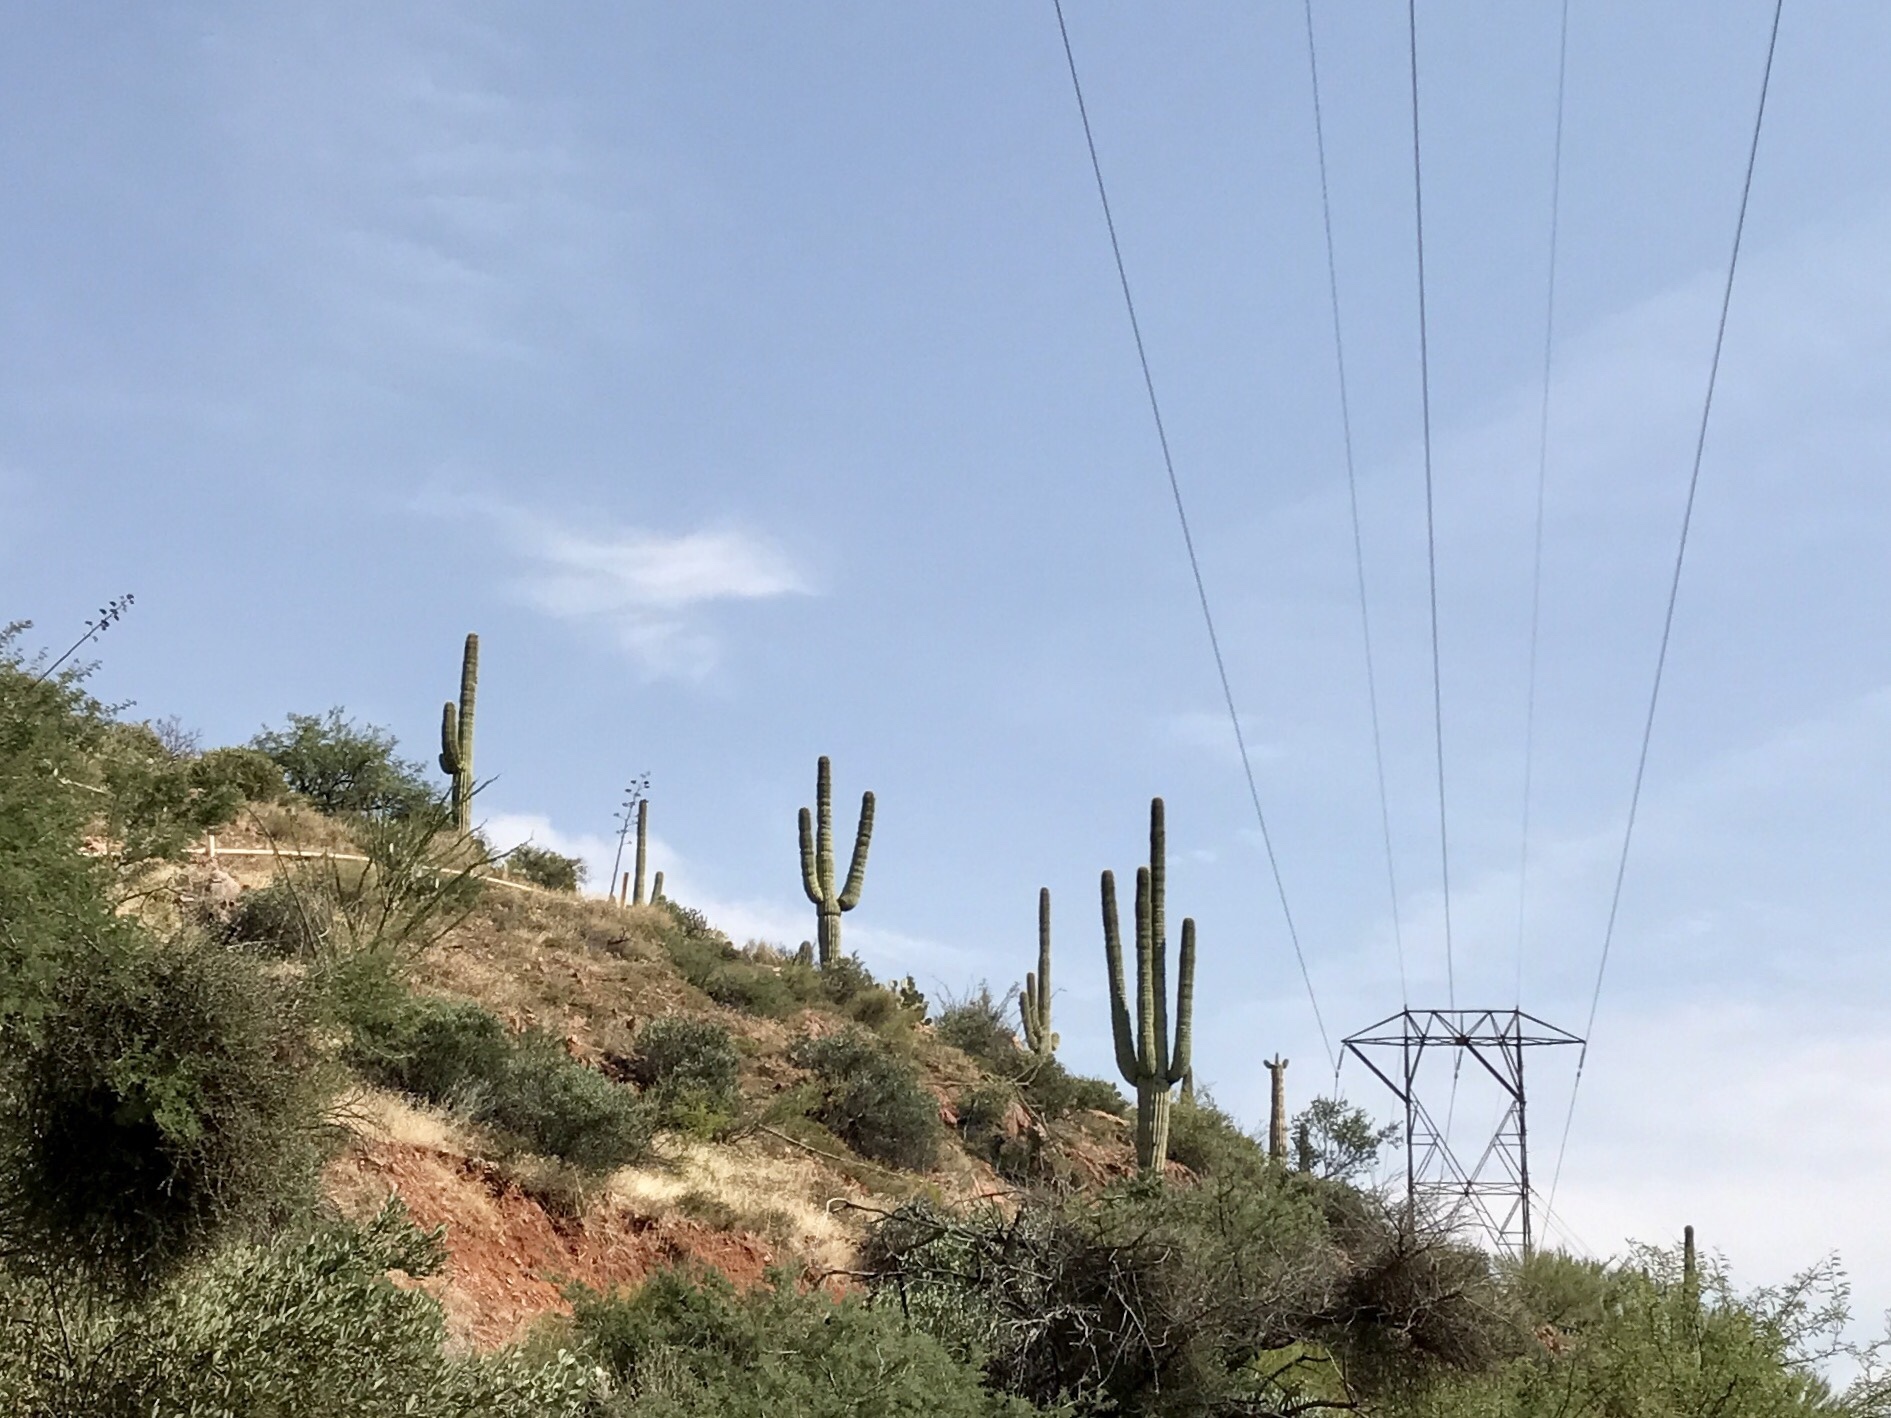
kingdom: Plantae
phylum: Tracheophyta
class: Magnoliopsida
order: Caryophyllales
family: Cactaceae
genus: Carnegiea
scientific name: Carnegiea gigantea
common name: Saguaro
